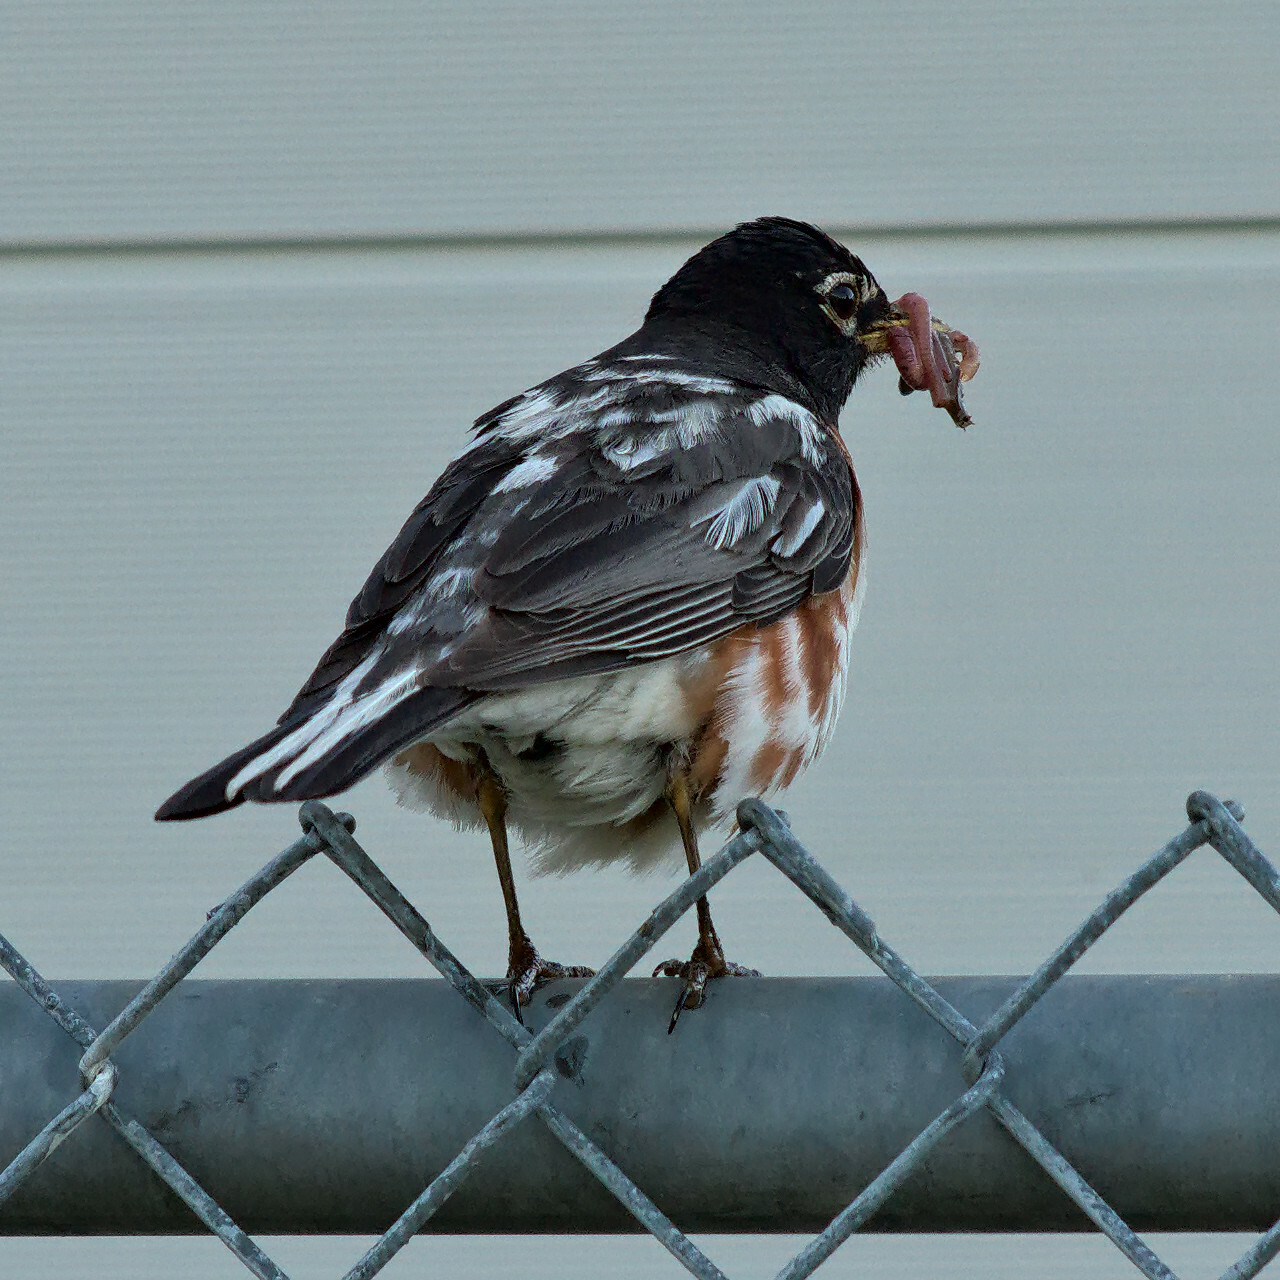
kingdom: Animalia
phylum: Chordata
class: Aves
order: Passeriformes
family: Turdidae
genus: Turdus
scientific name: Turdus migratorius
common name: American robin
